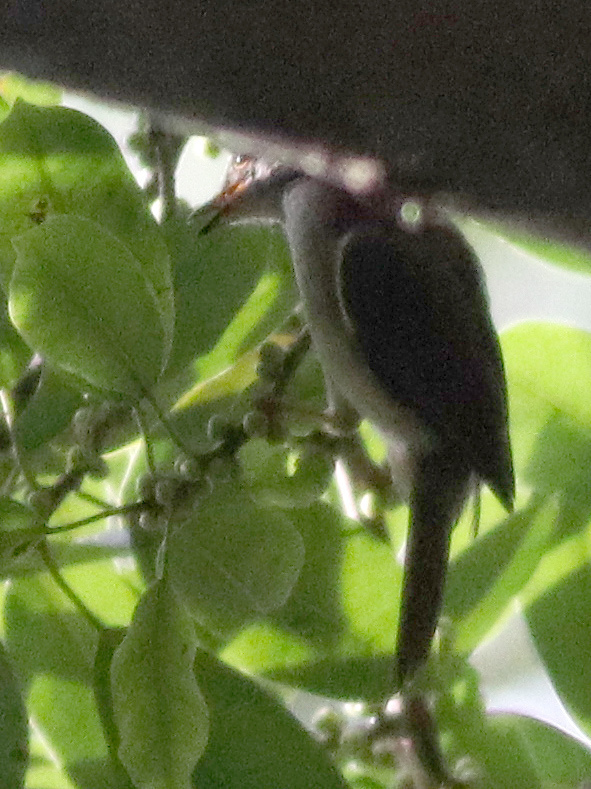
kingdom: Animalia
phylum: Chordata
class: Aves
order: Passeriformes
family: Pycnonotidae
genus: Rubigula
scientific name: Rubigula erythropthalmos
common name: Spectacled bulbul
